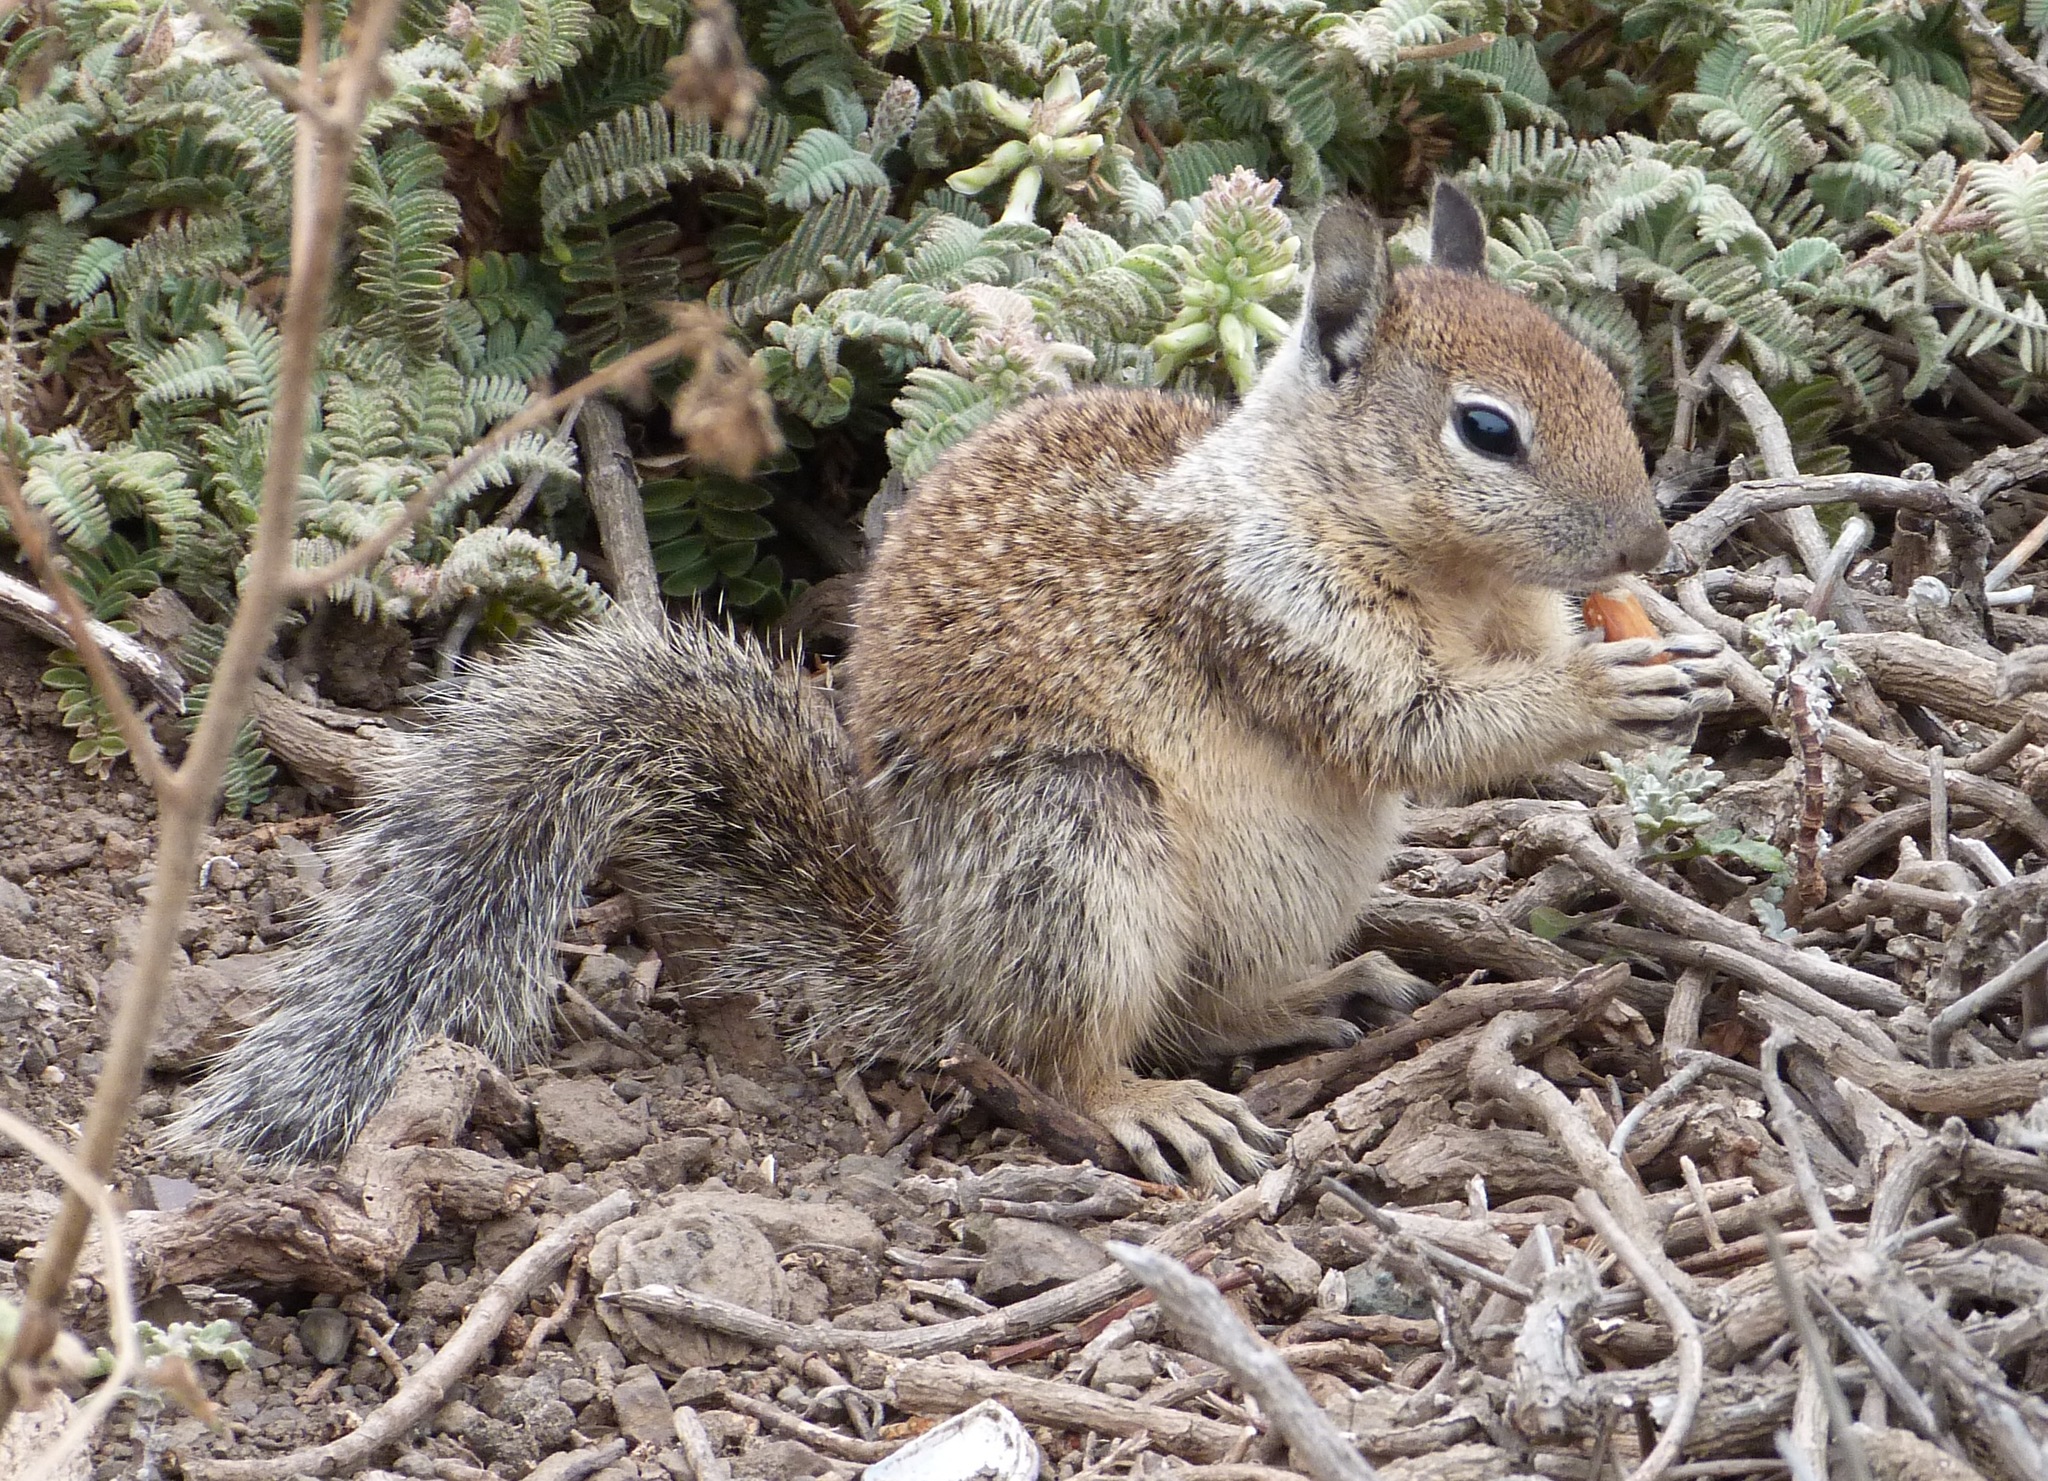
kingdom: Animalia
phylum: Chordata
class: Mammalia
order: Rodentia
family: Sciuridae
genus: Otospermophilus
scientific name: Otospermophilus beecheyi
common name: California ground squirrel
